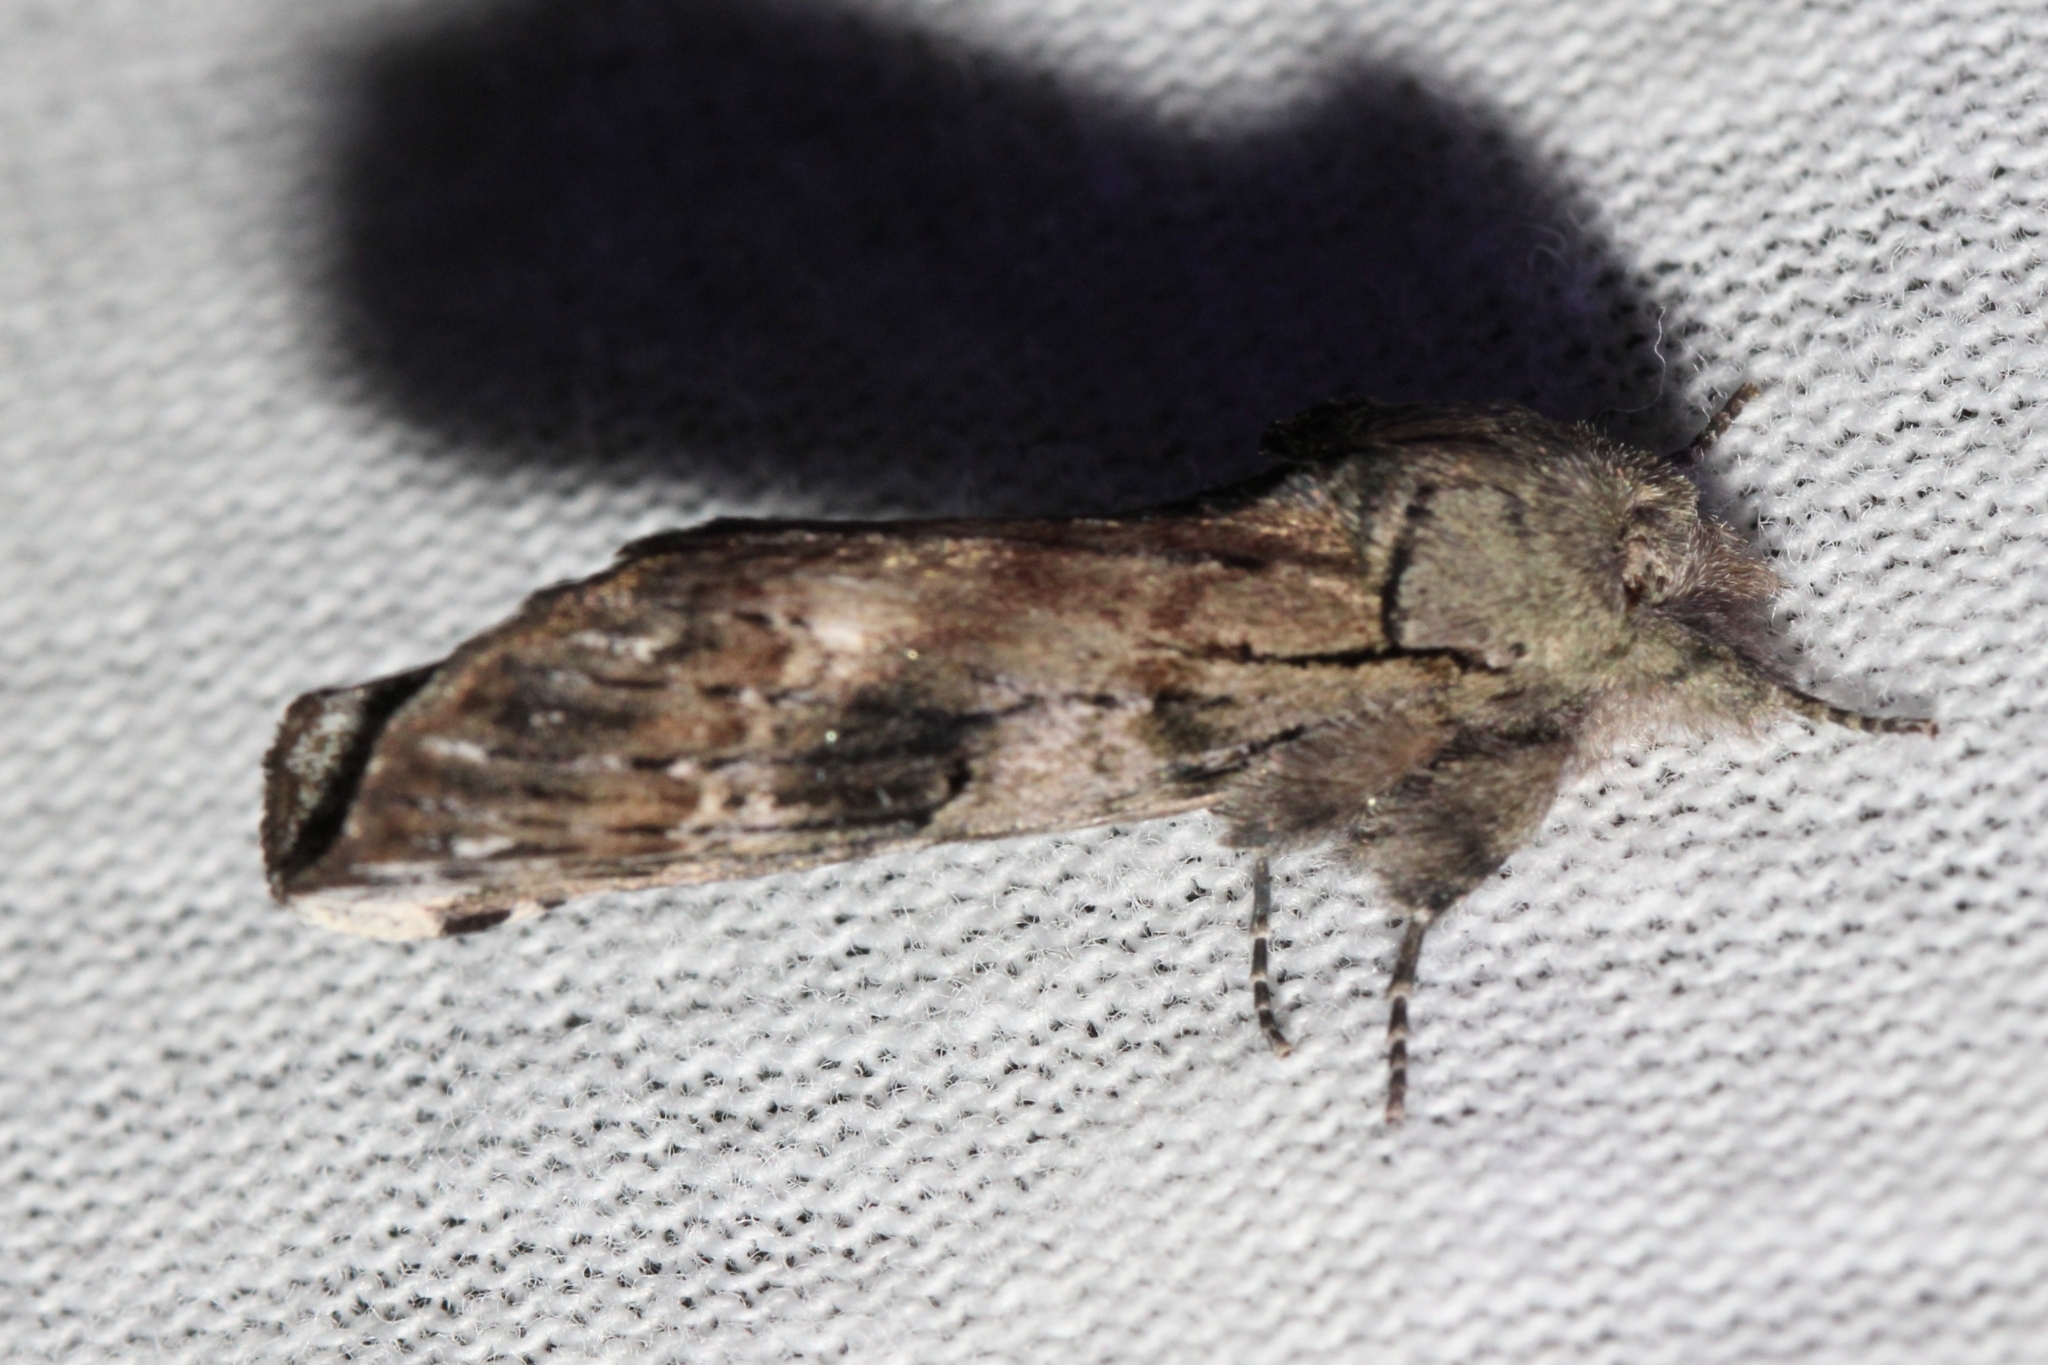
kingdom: Animalia
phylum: Arthropoda
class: Insecta
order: Lepidoptera
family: Notodontidae
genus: Schizura
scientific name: Schizura
